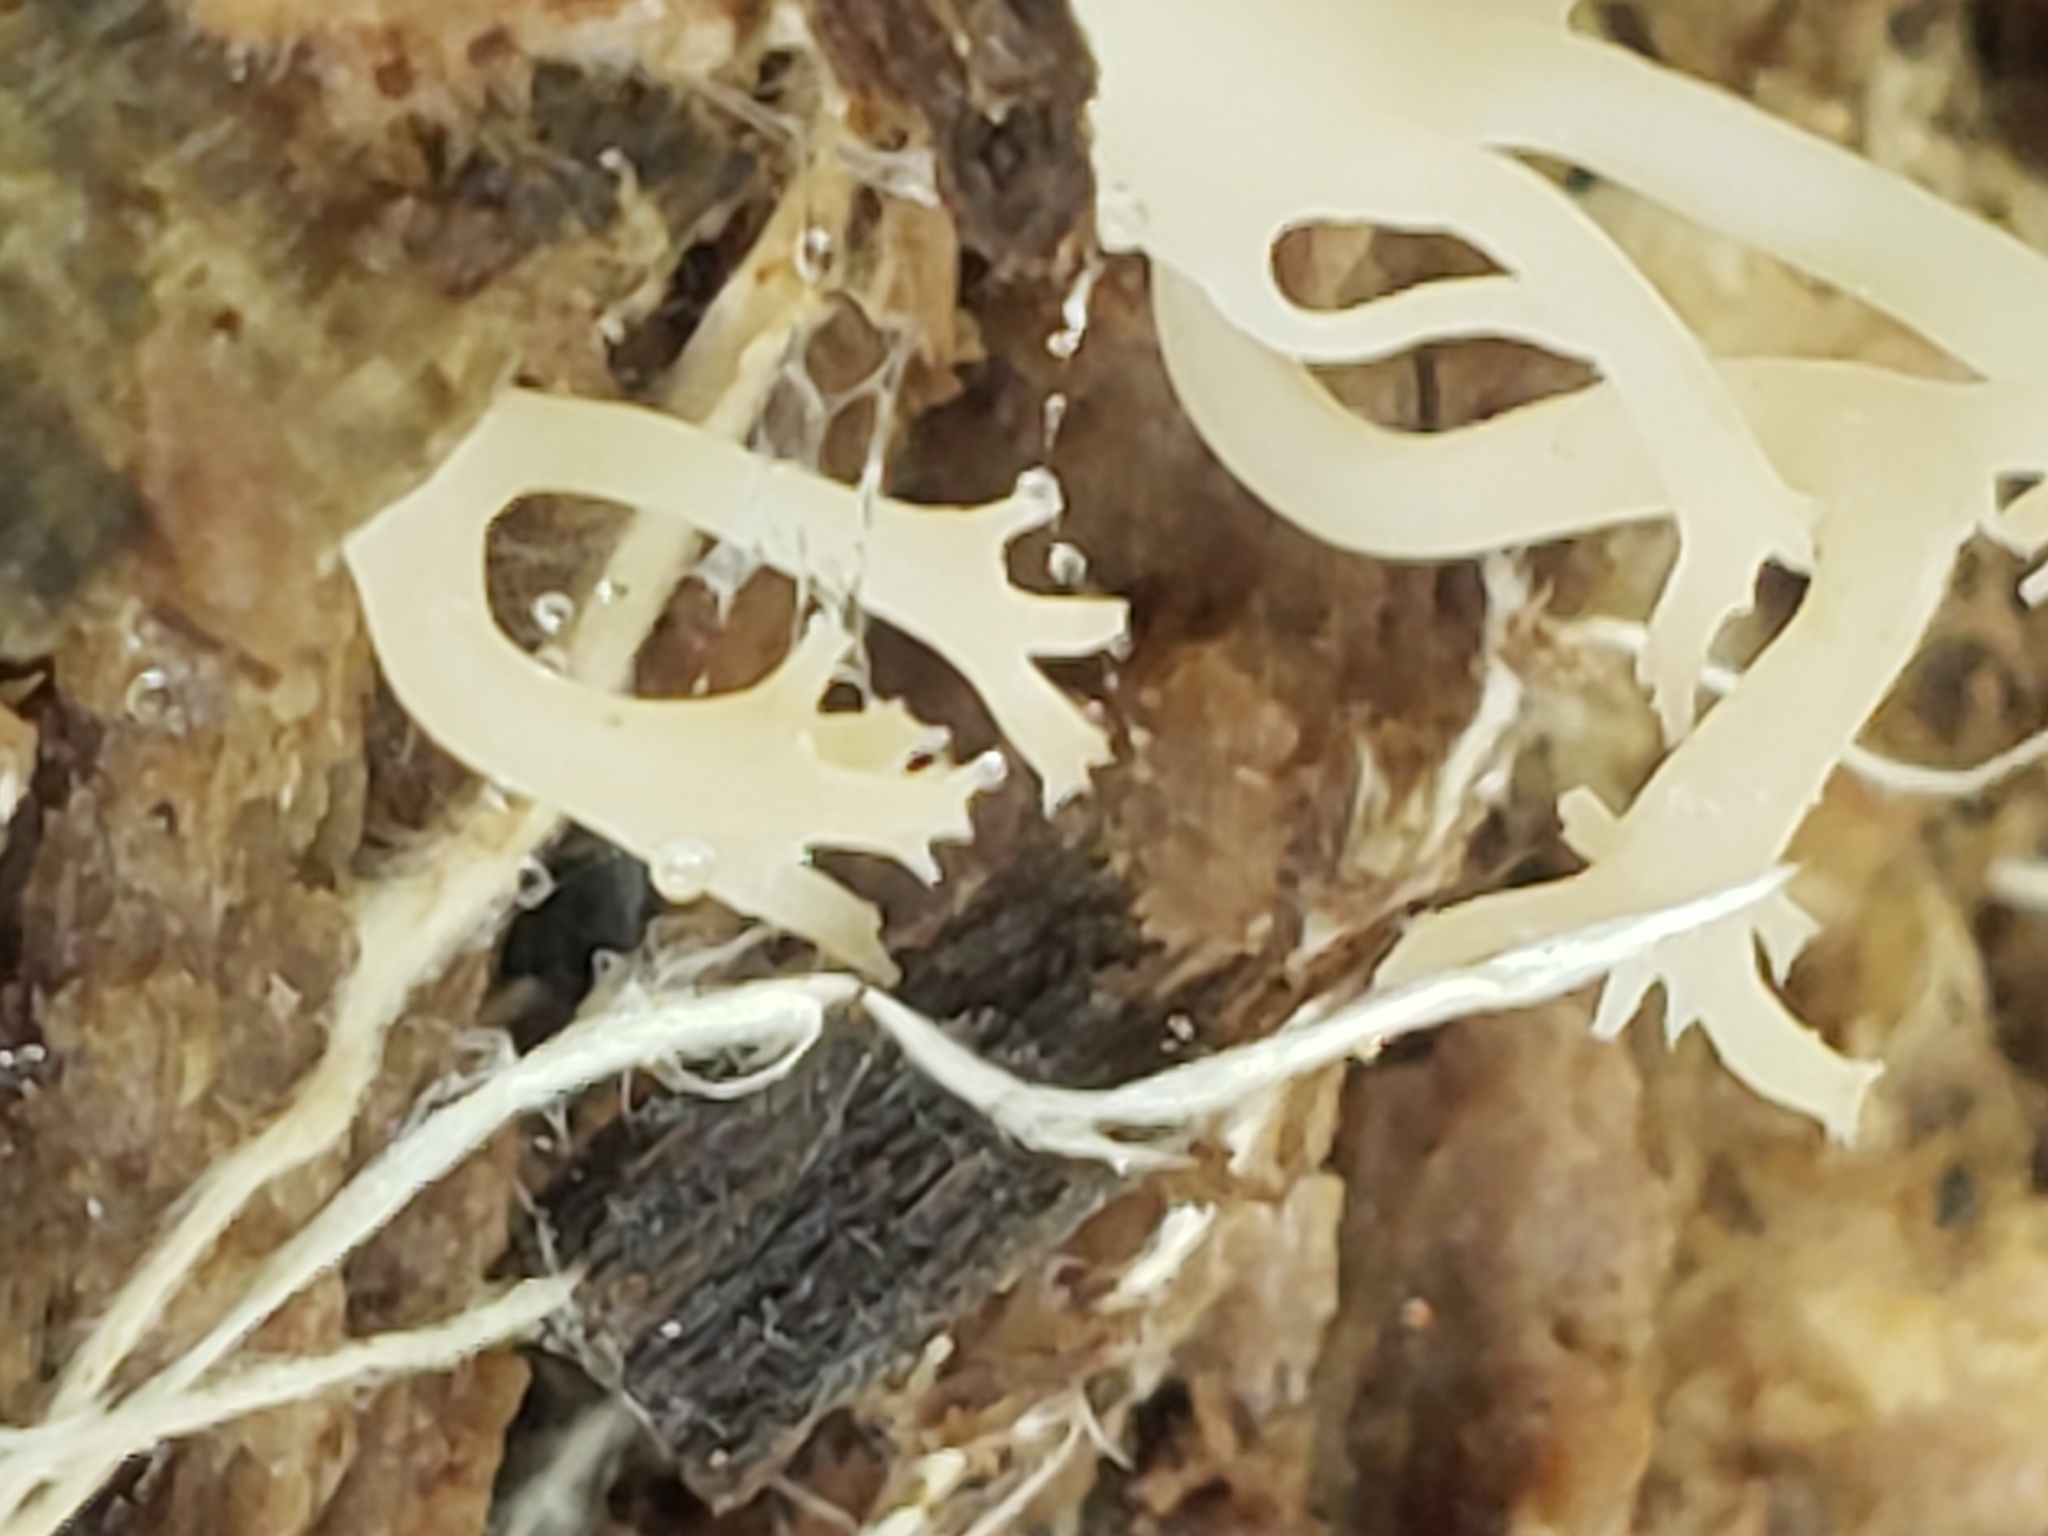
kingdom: Fungi
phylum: Basidiomycota
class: Agaricomycetes
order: Russulales
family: Auriscalpiaceae
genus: Artomyces
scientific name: Artomyces pyxidatus
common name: Crown-tipped coral fungus
